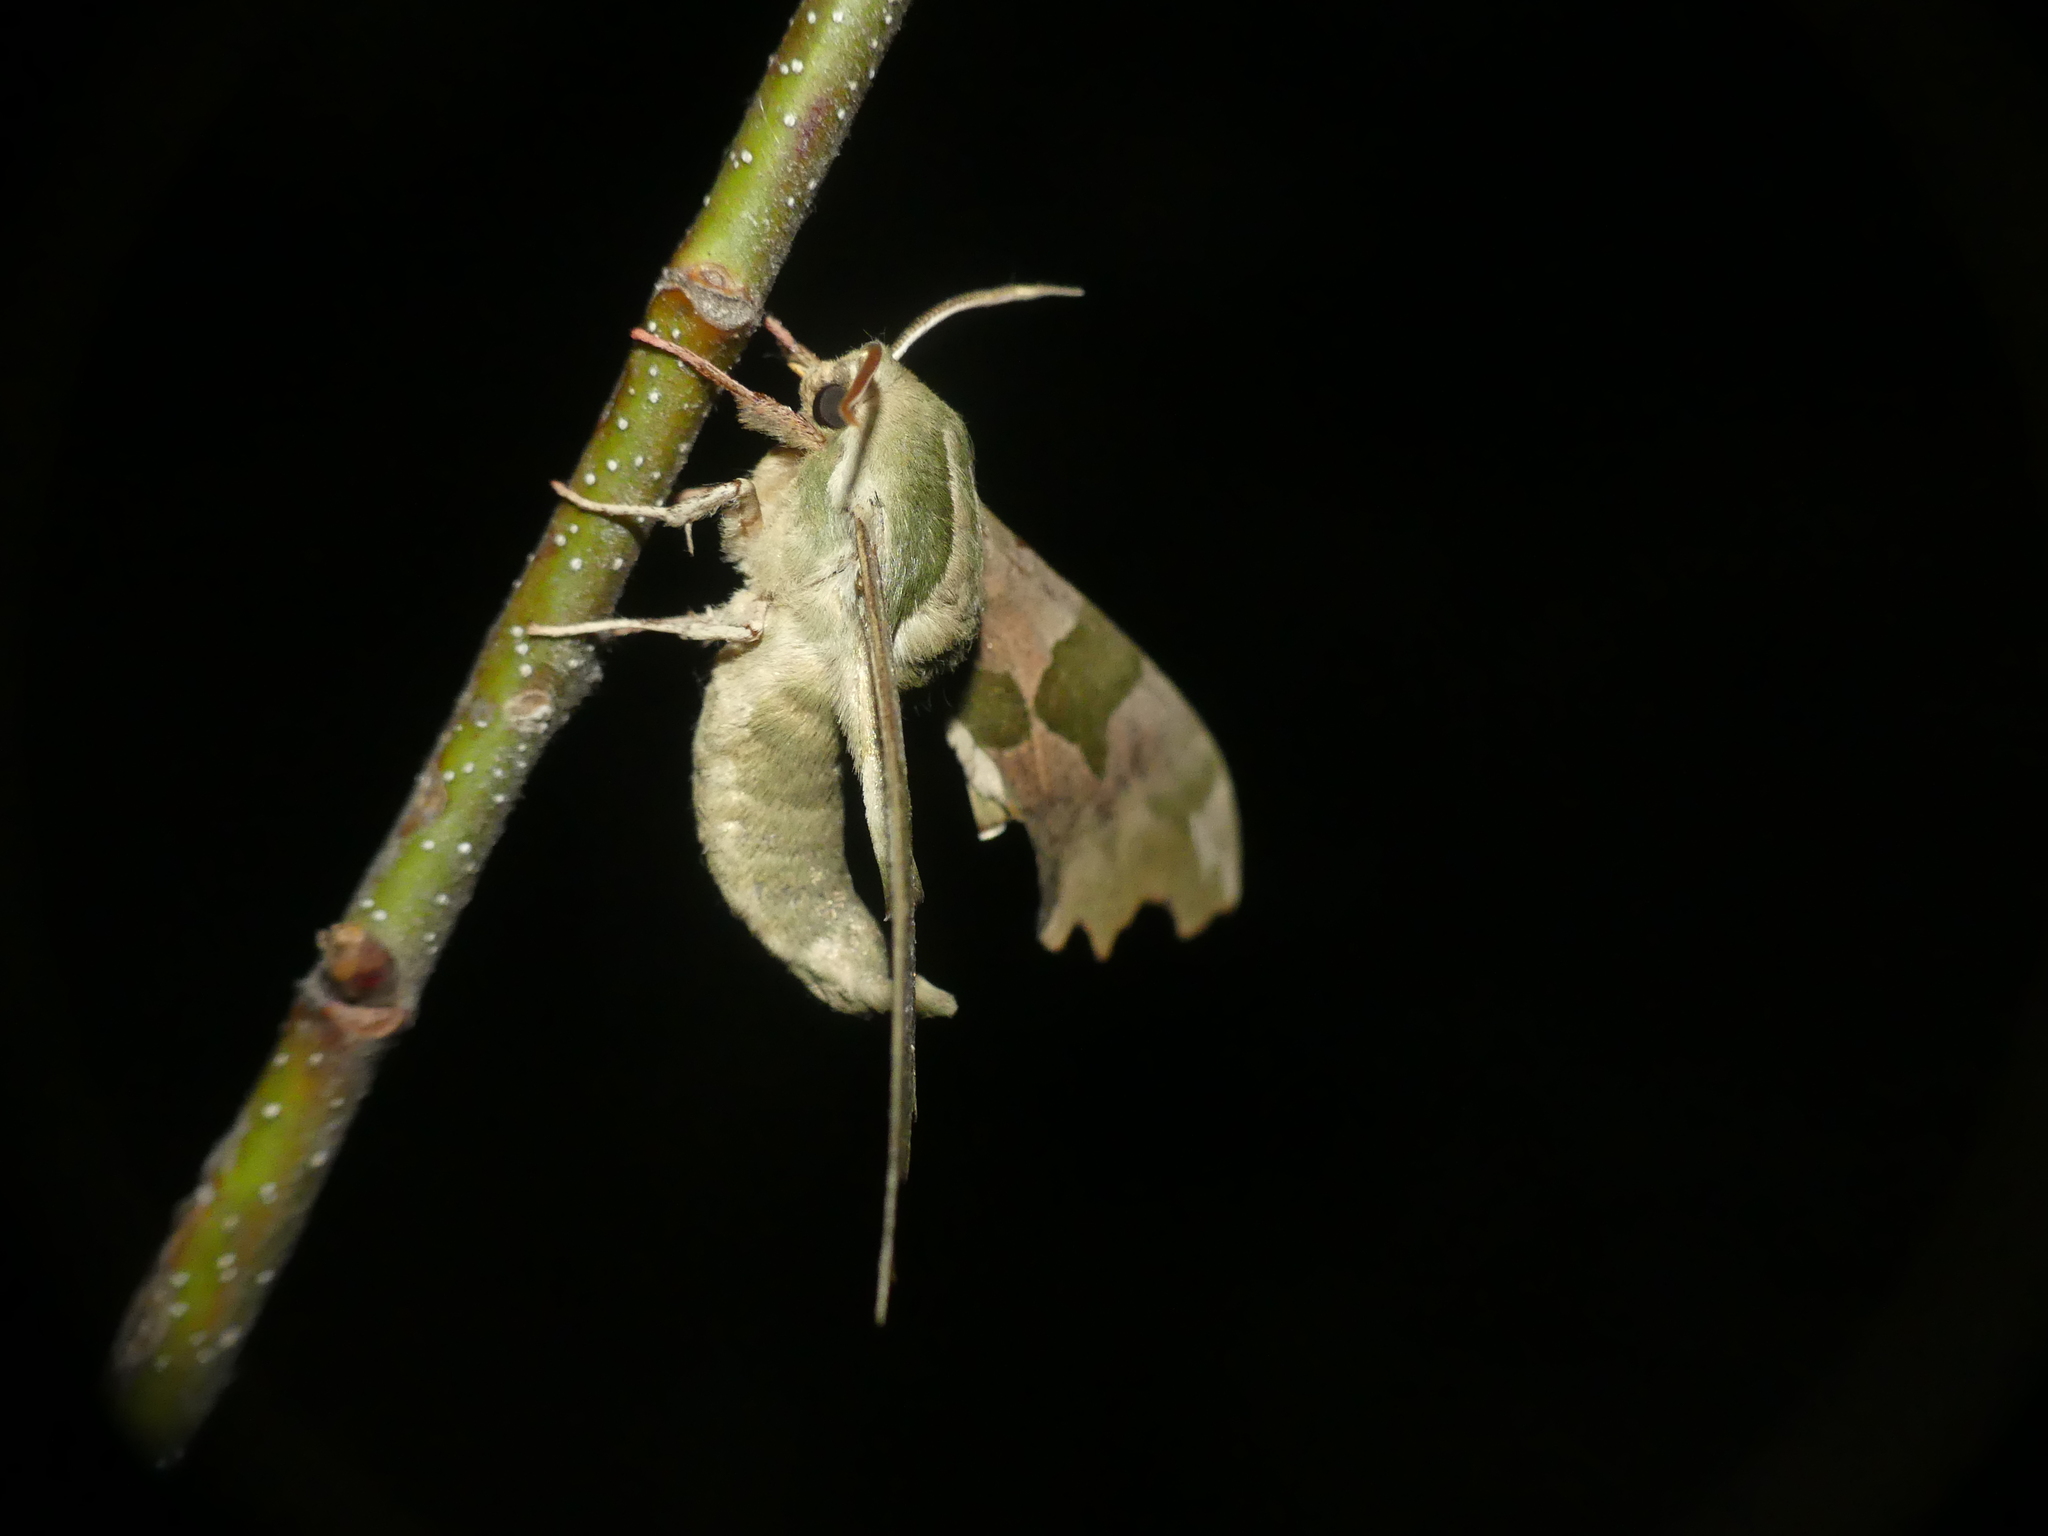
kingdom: Animalia
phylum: Arthropoda
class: Insecta
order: Lepidoptera
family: Sphingidae
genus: Mimas
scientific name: Mimas tiliae
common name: Lime hawk-moth
